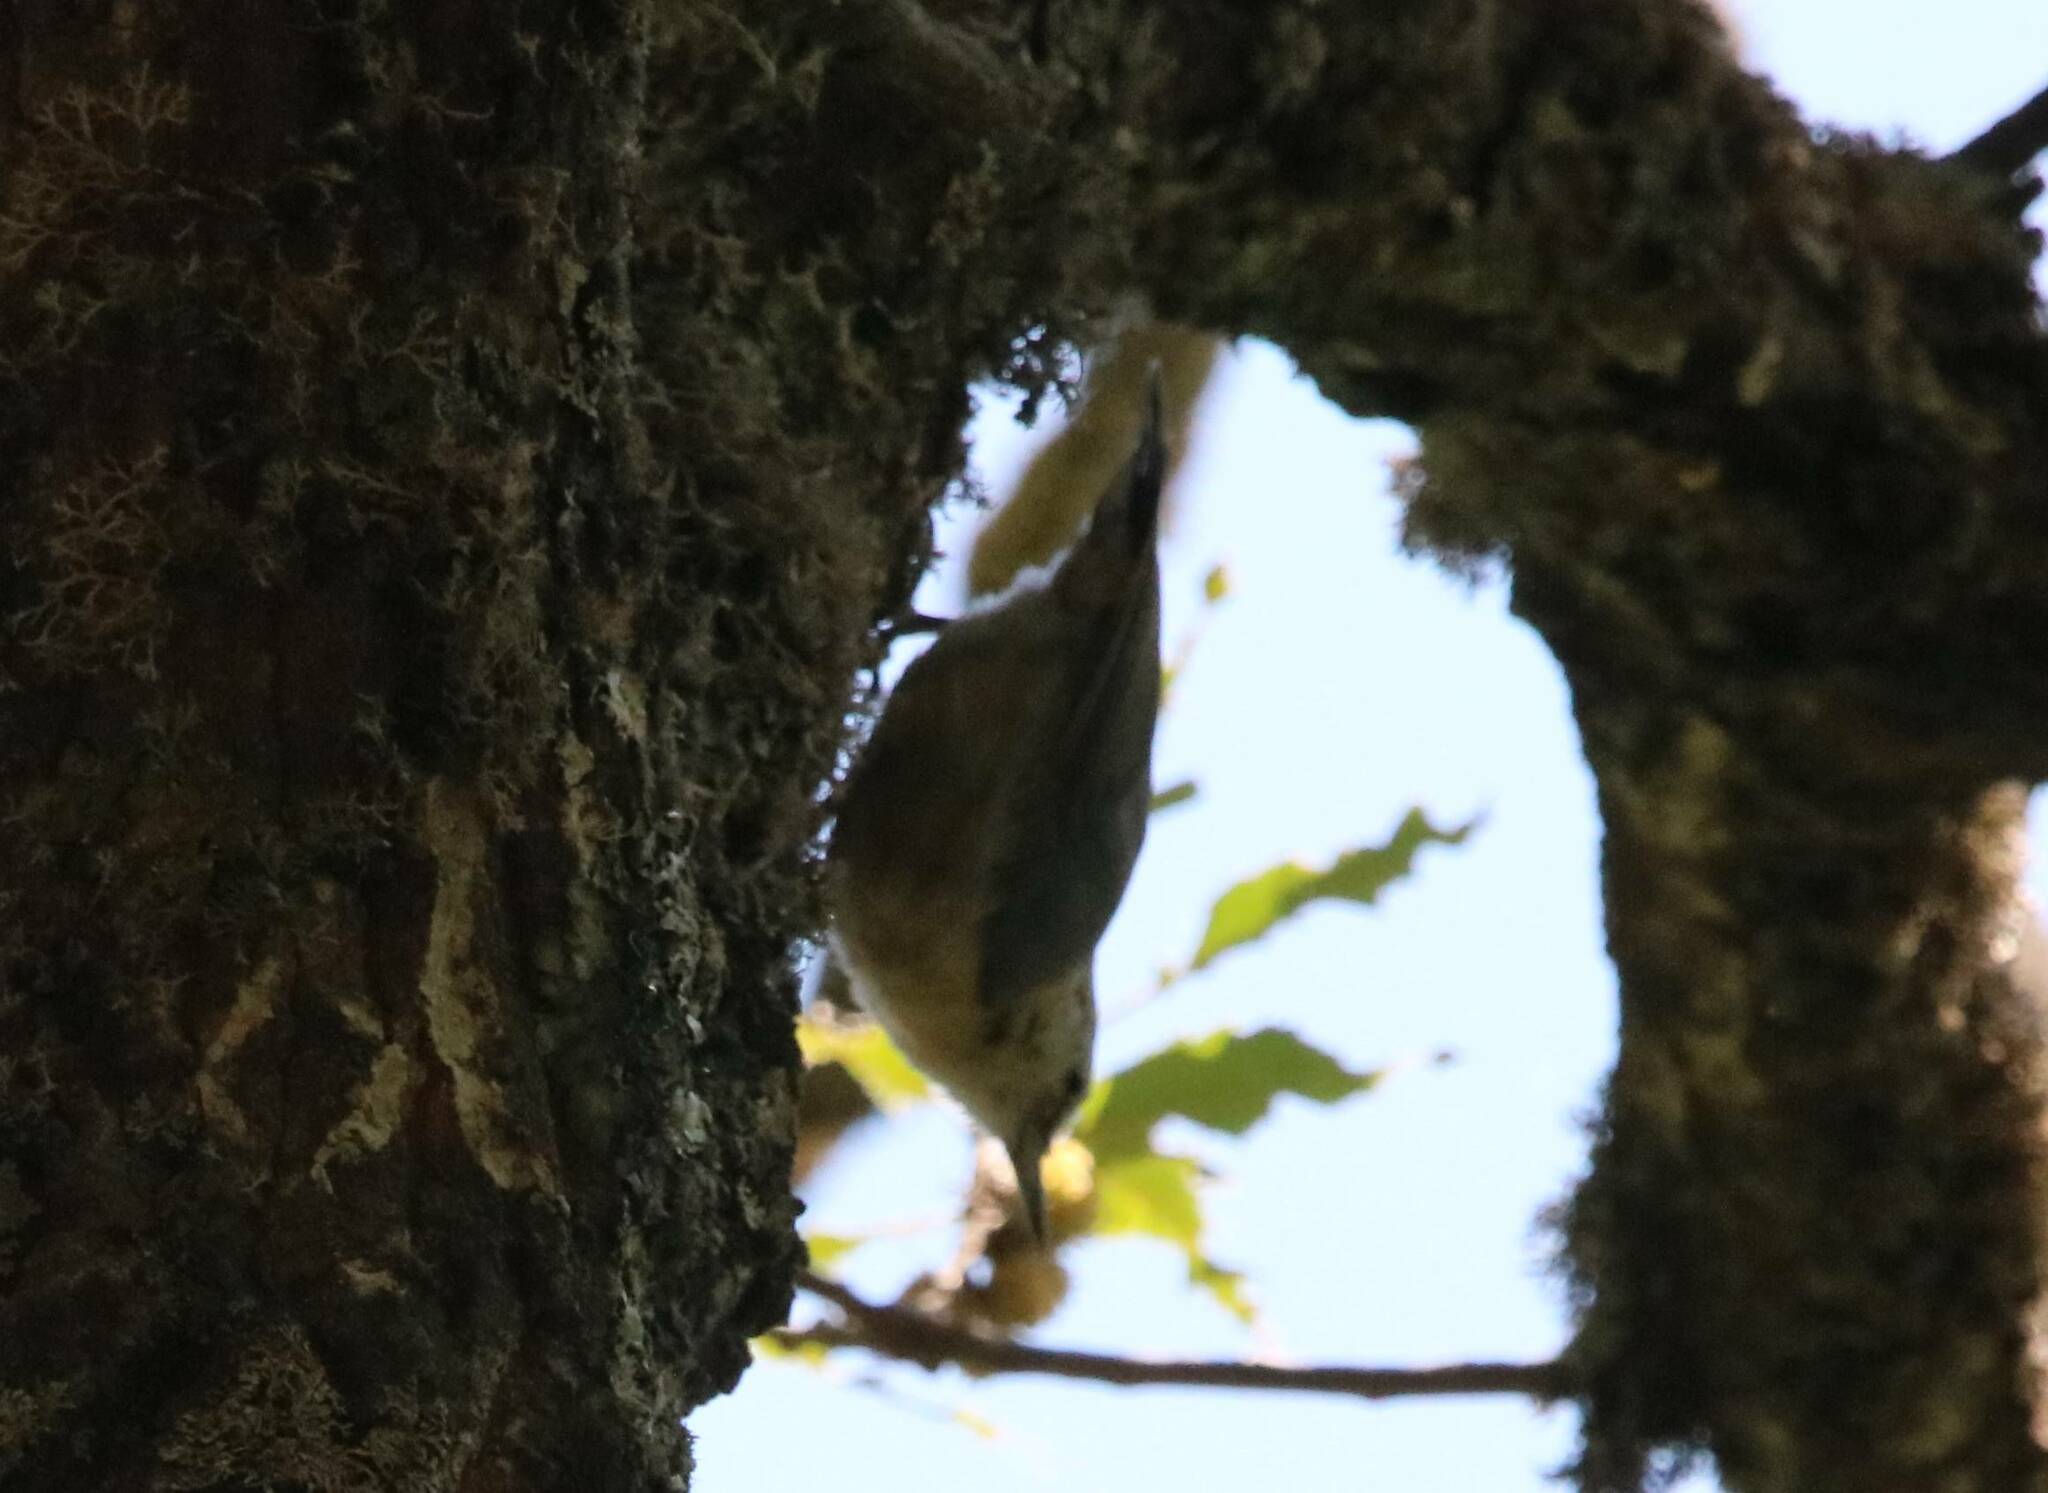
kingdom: Animalia
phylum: Chordata
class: Aves
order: Passeriformes
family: Sittidae
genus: Sitta
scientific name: Sitta ledanti
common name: Algerian nuthatch
